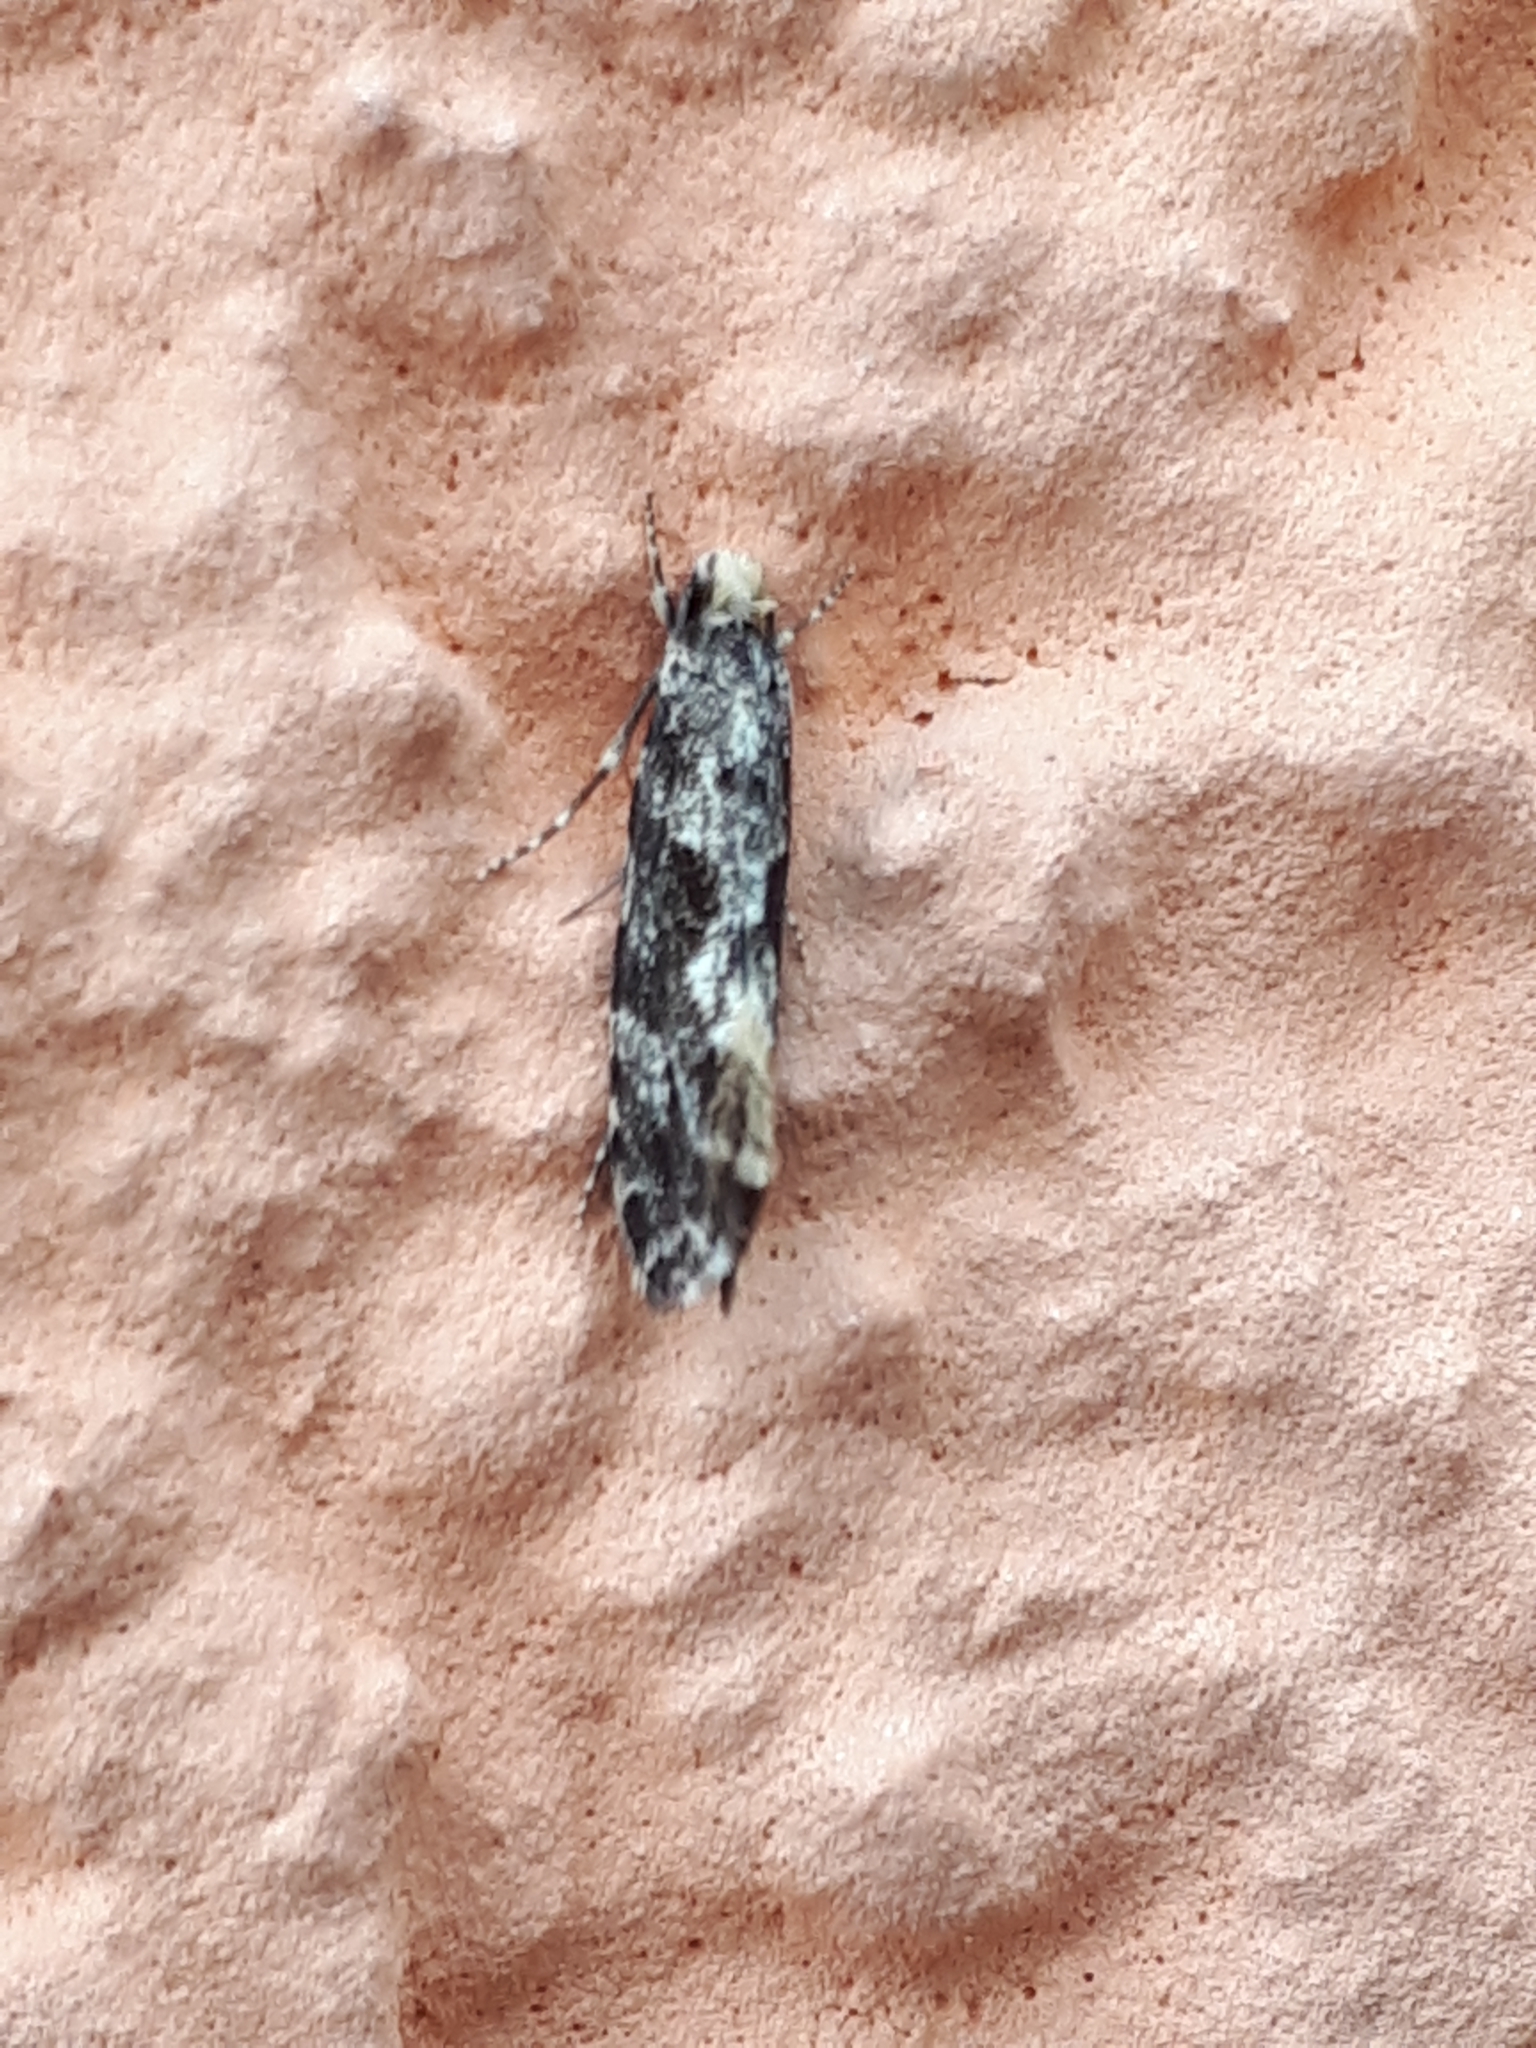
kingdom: Animalia
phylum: Arthropoda
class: Insecta
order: Lepidoptera
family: Tineidae
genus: Nemapogon
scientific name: Nemapogon granella
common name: European grain moth
